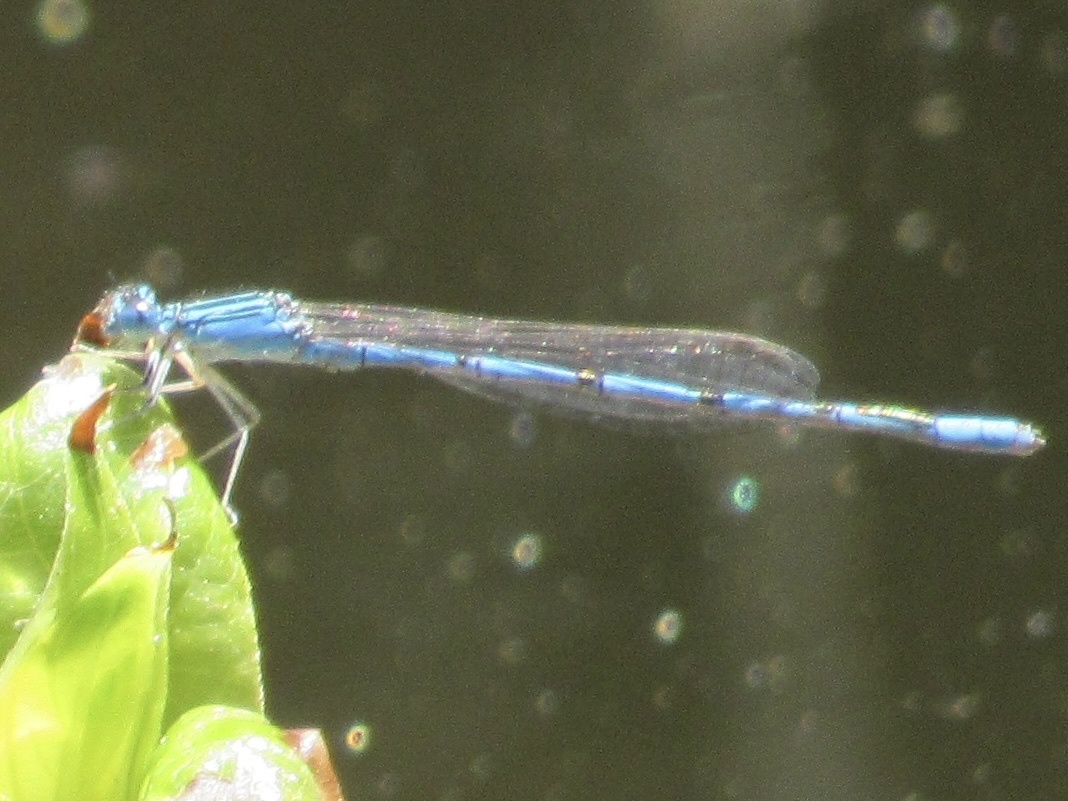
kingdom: Animalia
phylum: Arthropoda
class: Insecta
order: Odonata
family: Coenagrionidae
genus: Enallagma
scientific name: Enallagma basidens
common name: Double-striped bluet
